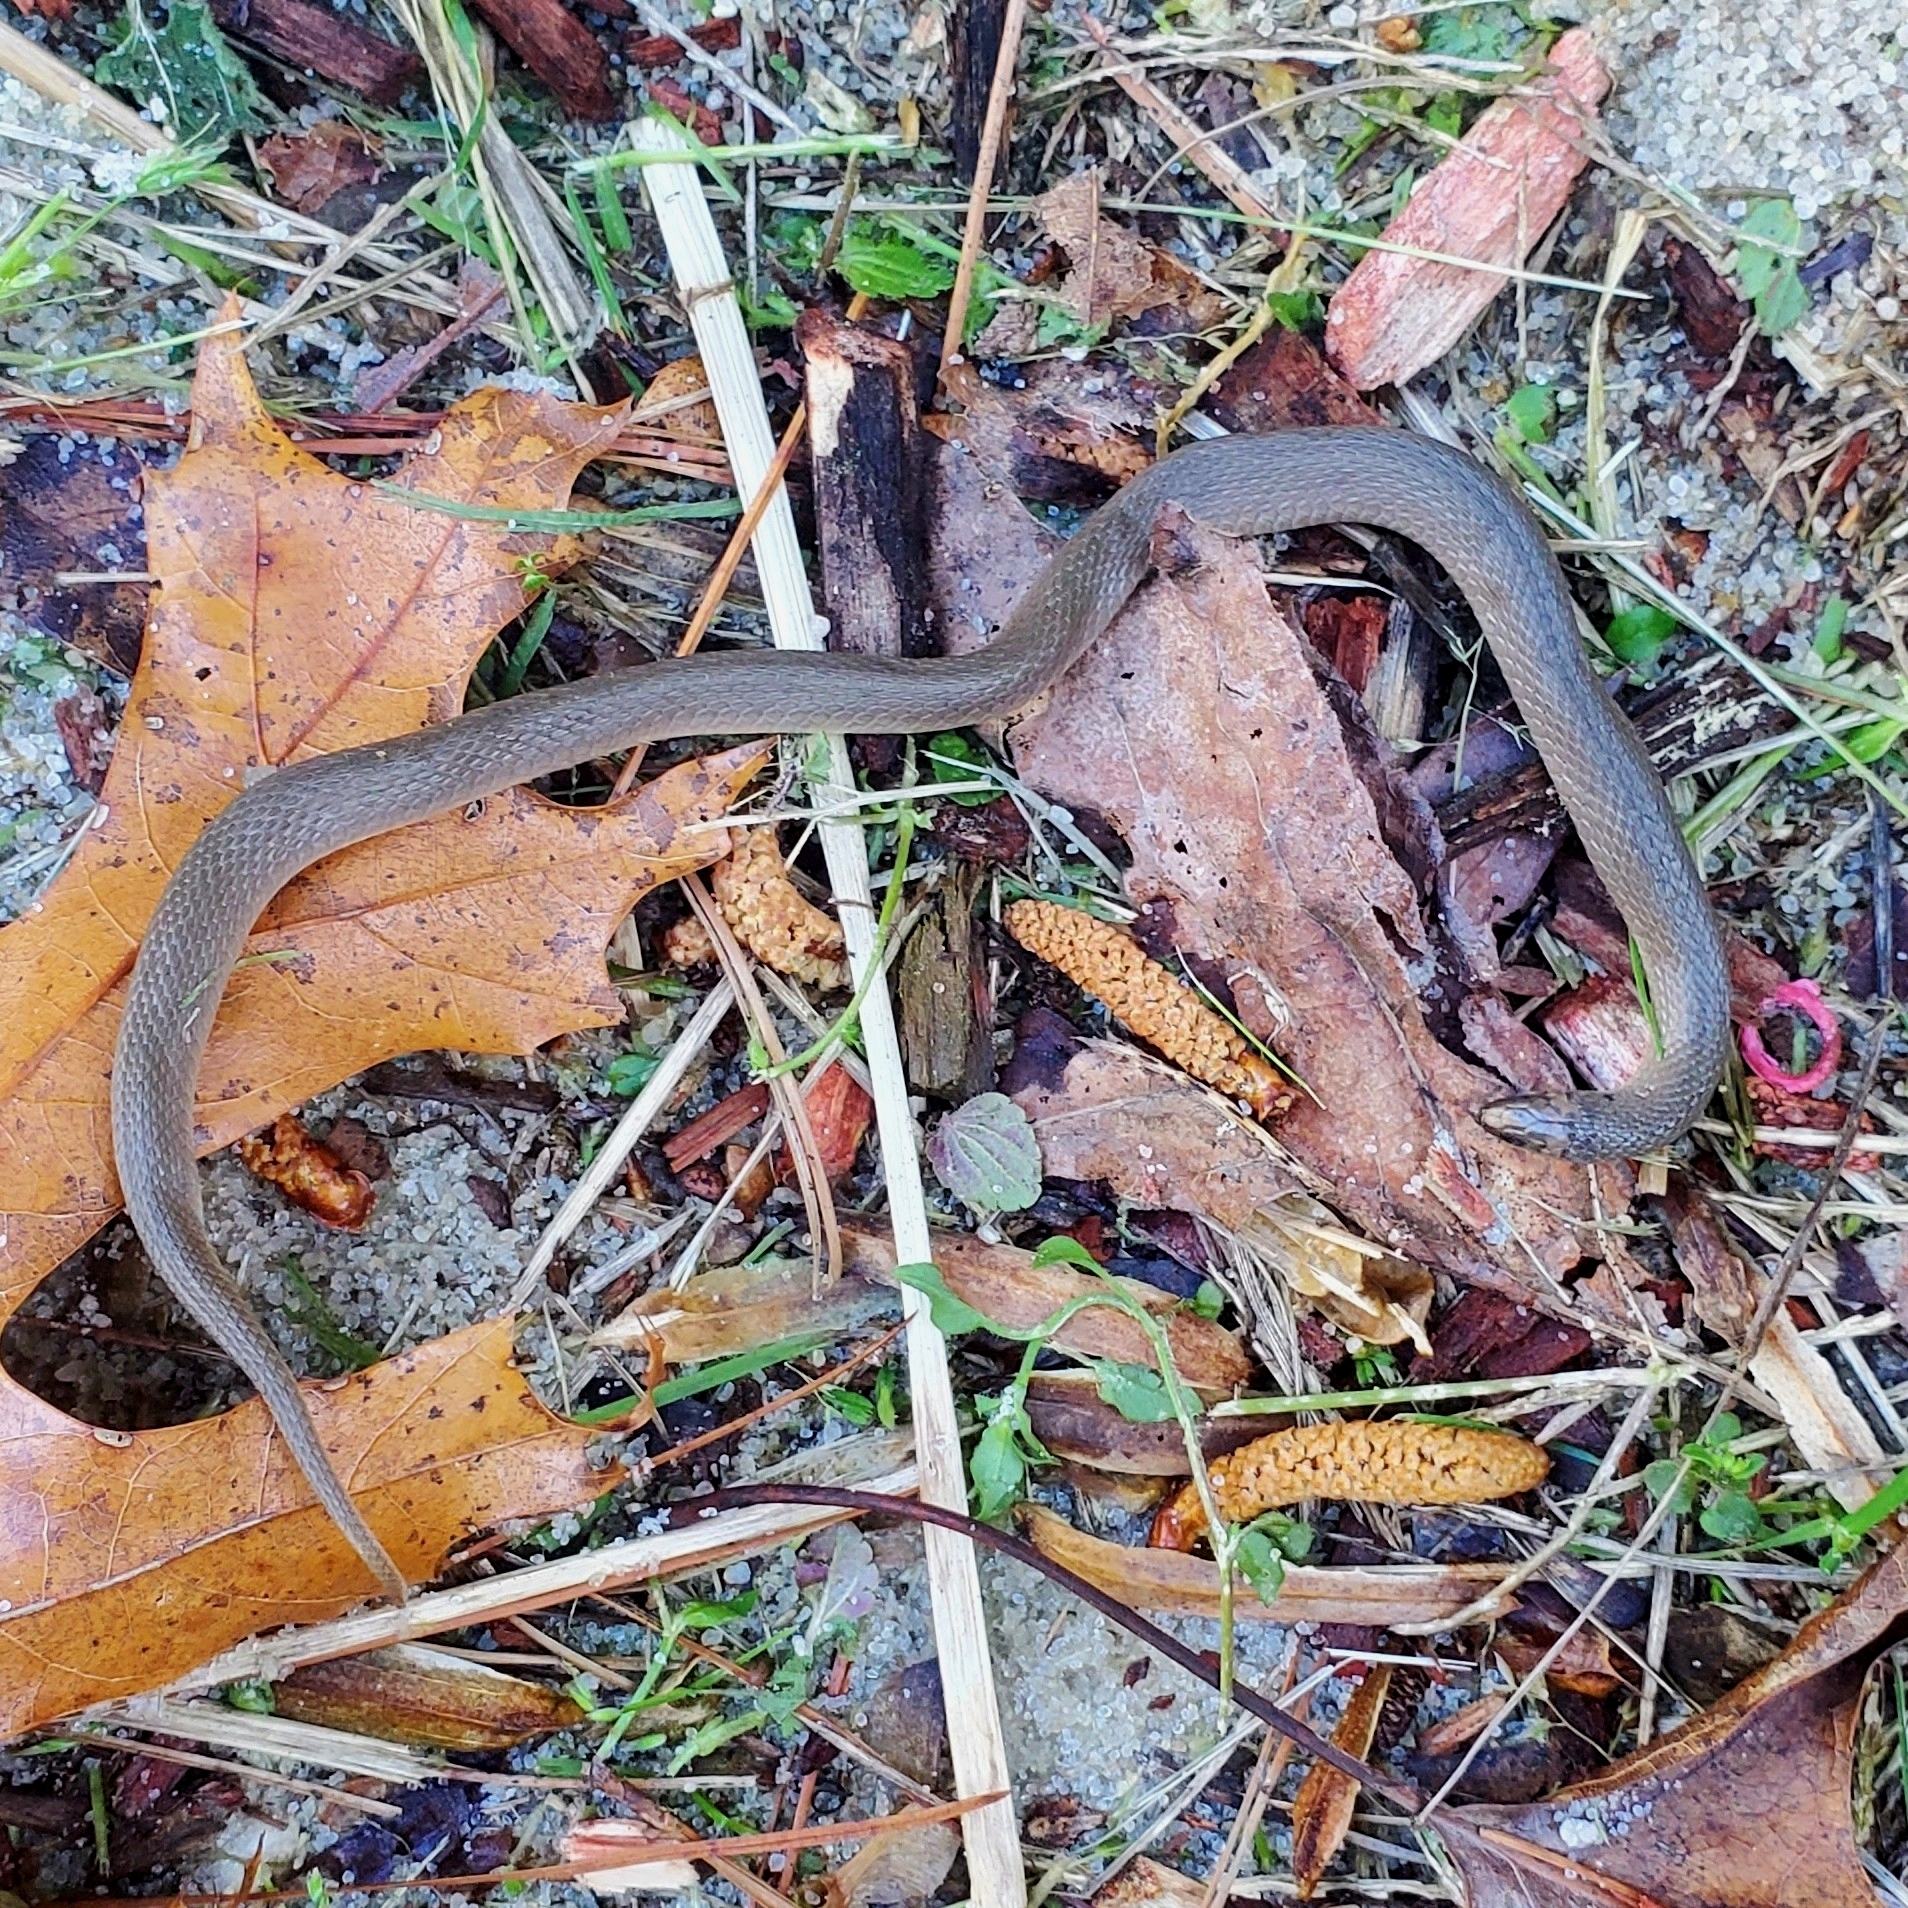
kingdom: Animalia
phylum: Chordata
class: Squamata
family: Colubridae
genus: Haldea
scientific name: Haldea striatula
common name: Rough earth snake
